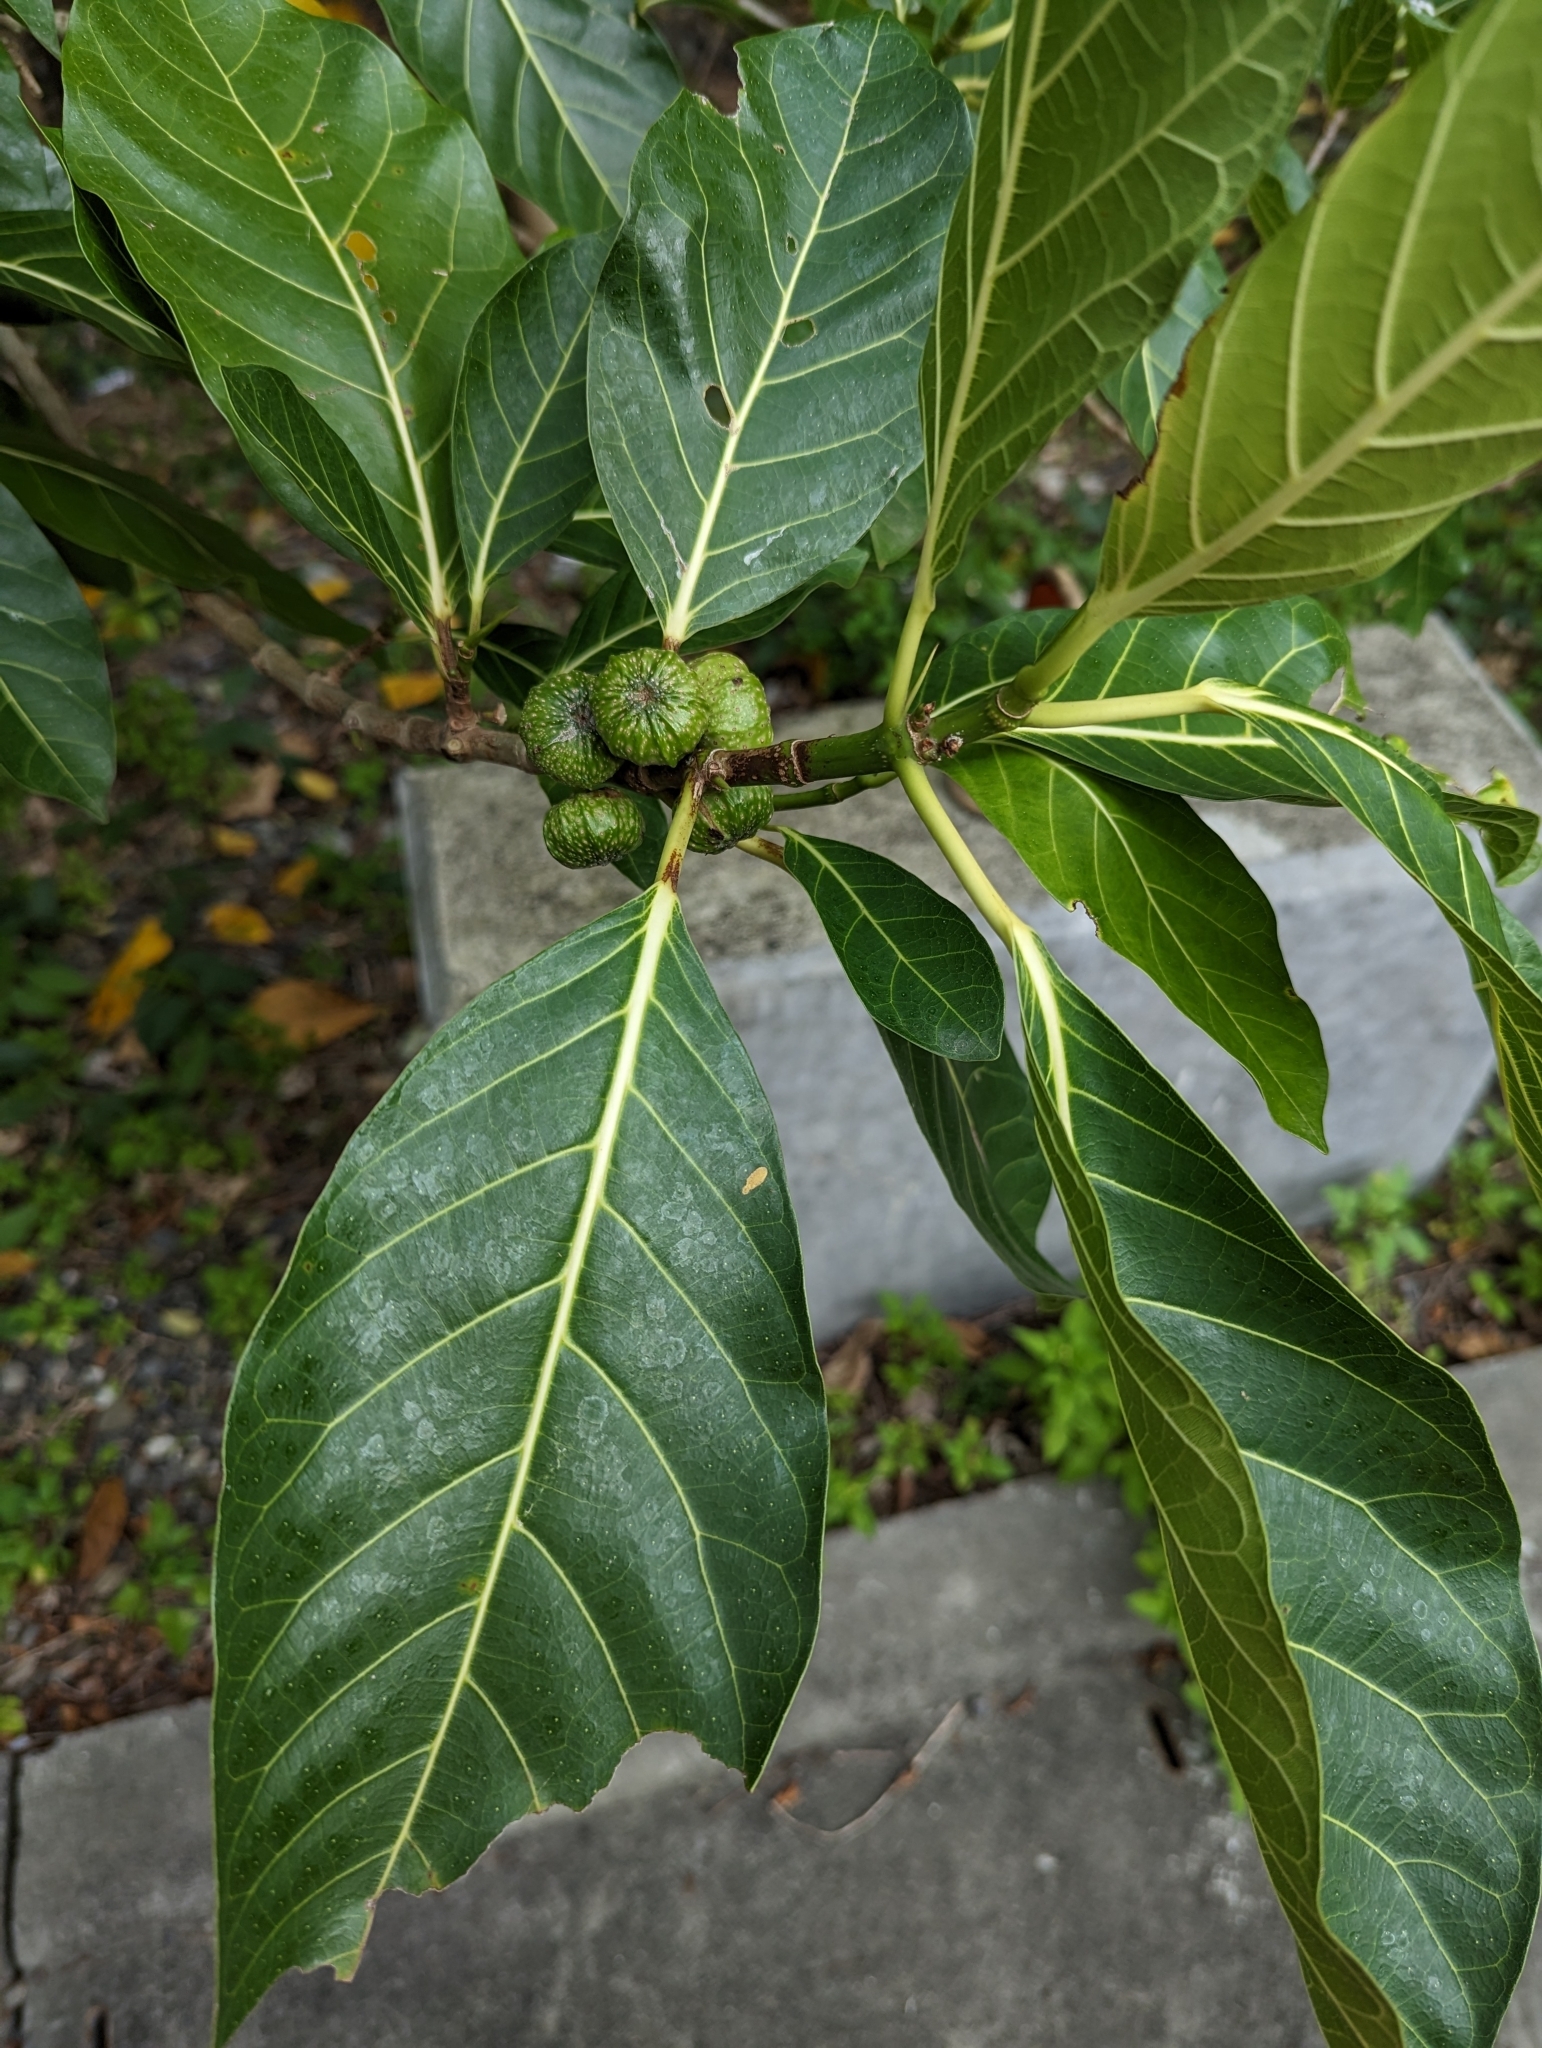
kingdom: Plantae
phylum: Tracheophyta
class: Magnoliopsida
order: Rosales
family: Moraceae
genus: Ficus
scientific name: Ficus septica
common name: Septic fig
